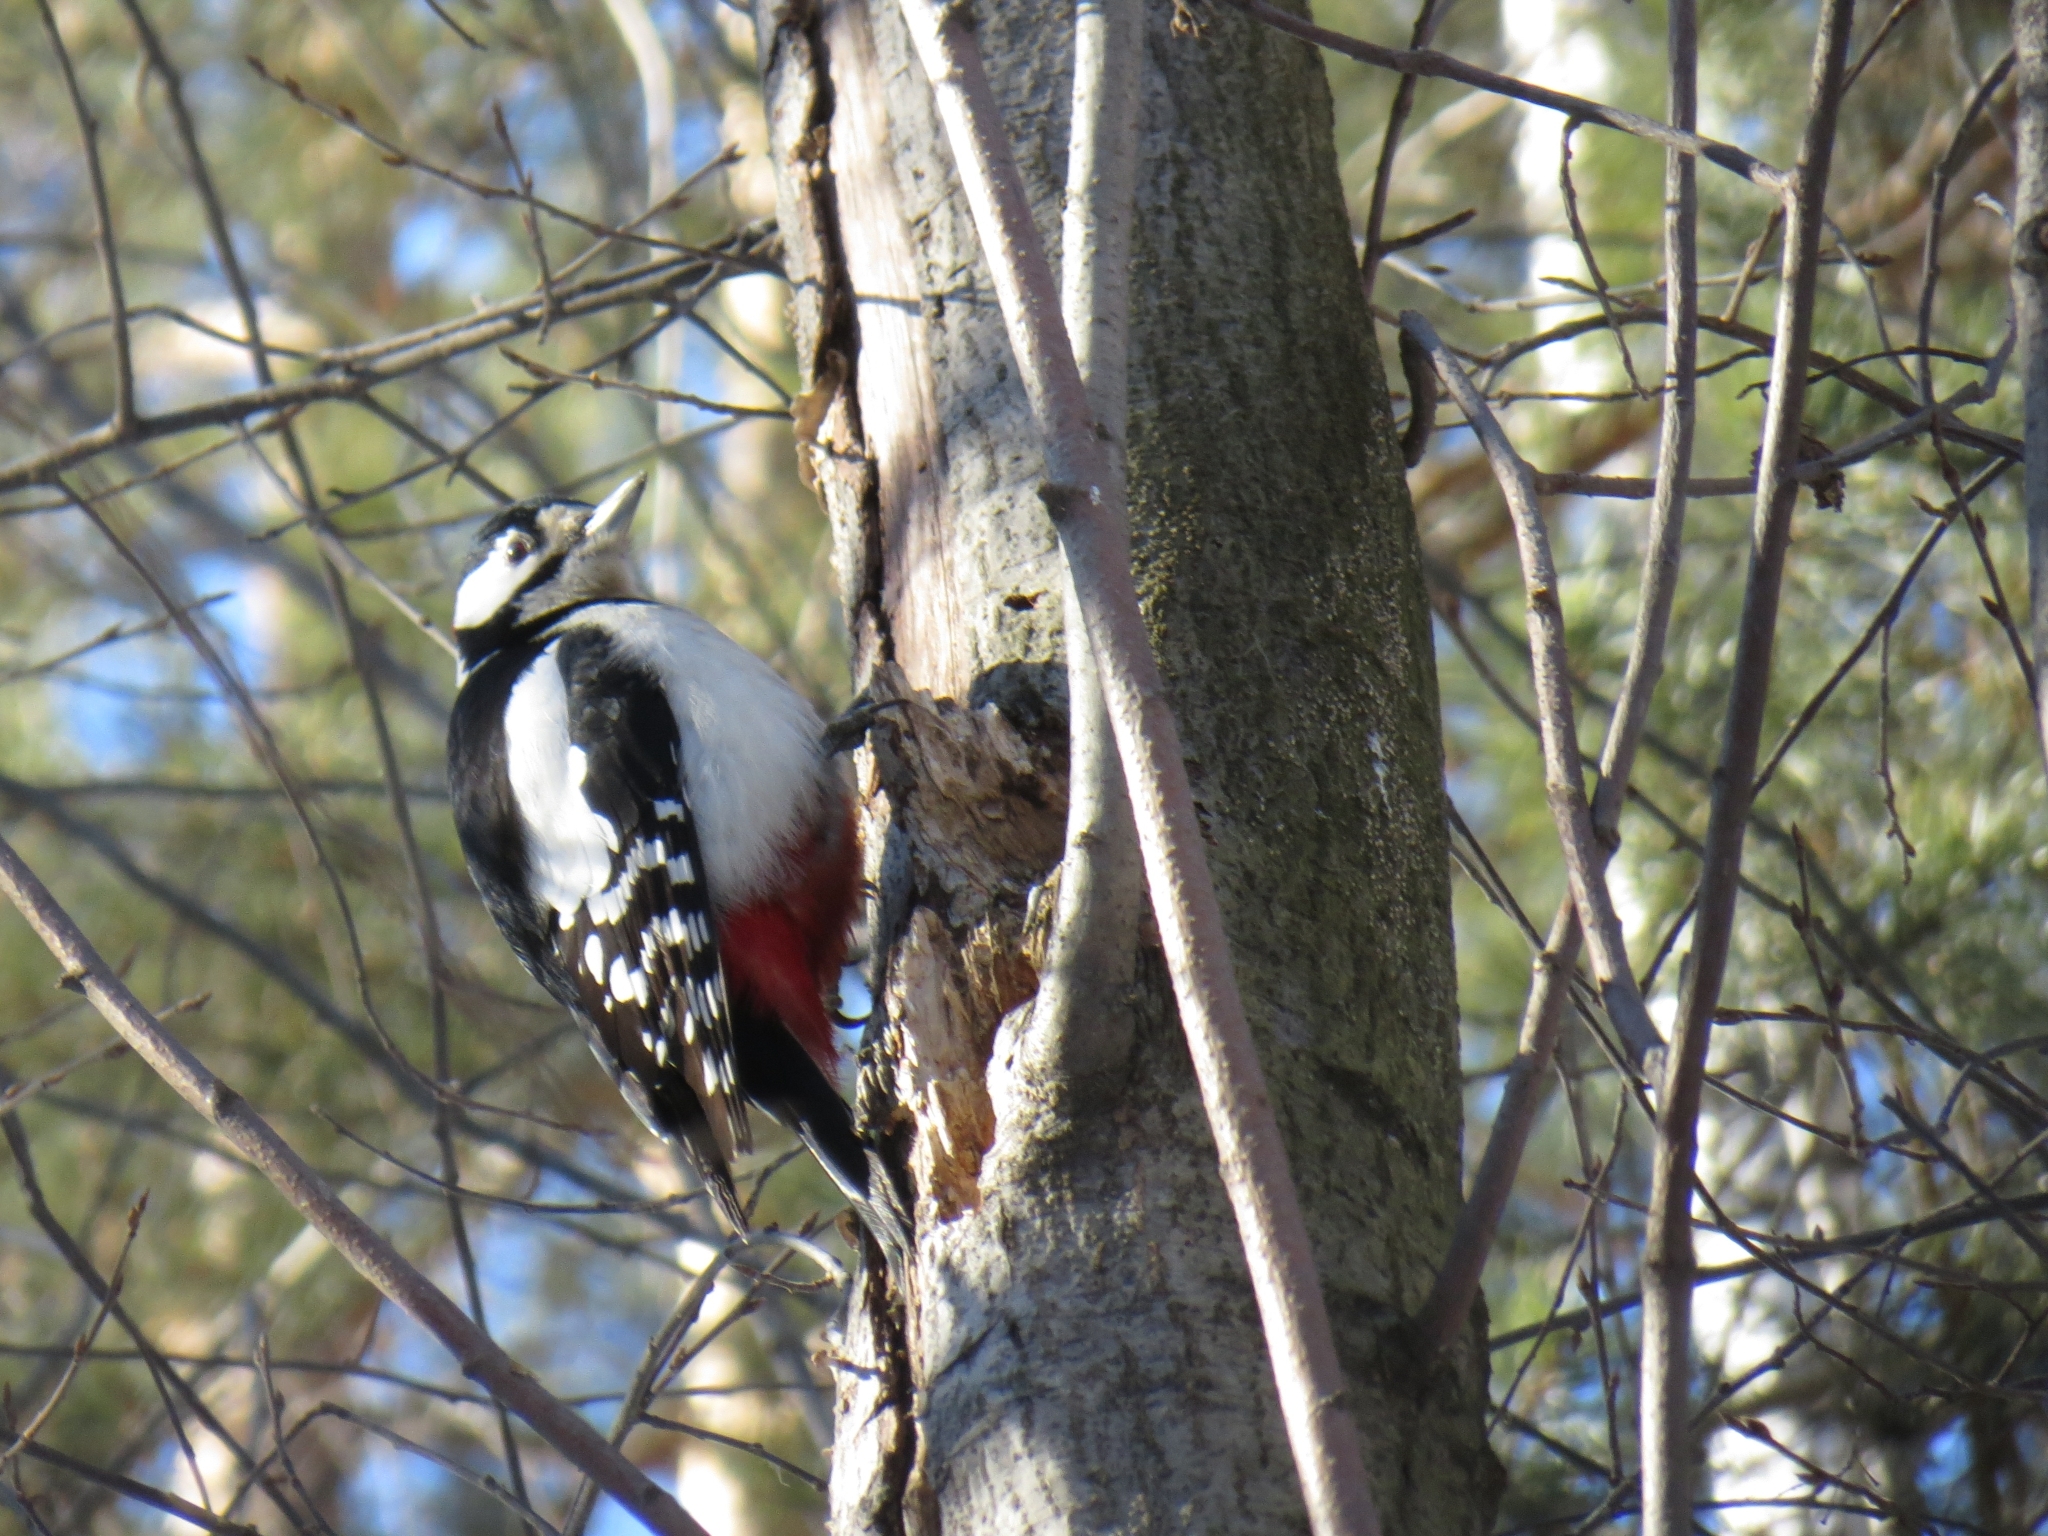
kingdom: Animalia
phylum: Chordata
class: Aves
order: Piciformes
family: Picidae
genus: Dendrocopos
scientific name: Dendrocopos major
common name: Great spotted woodpecker
